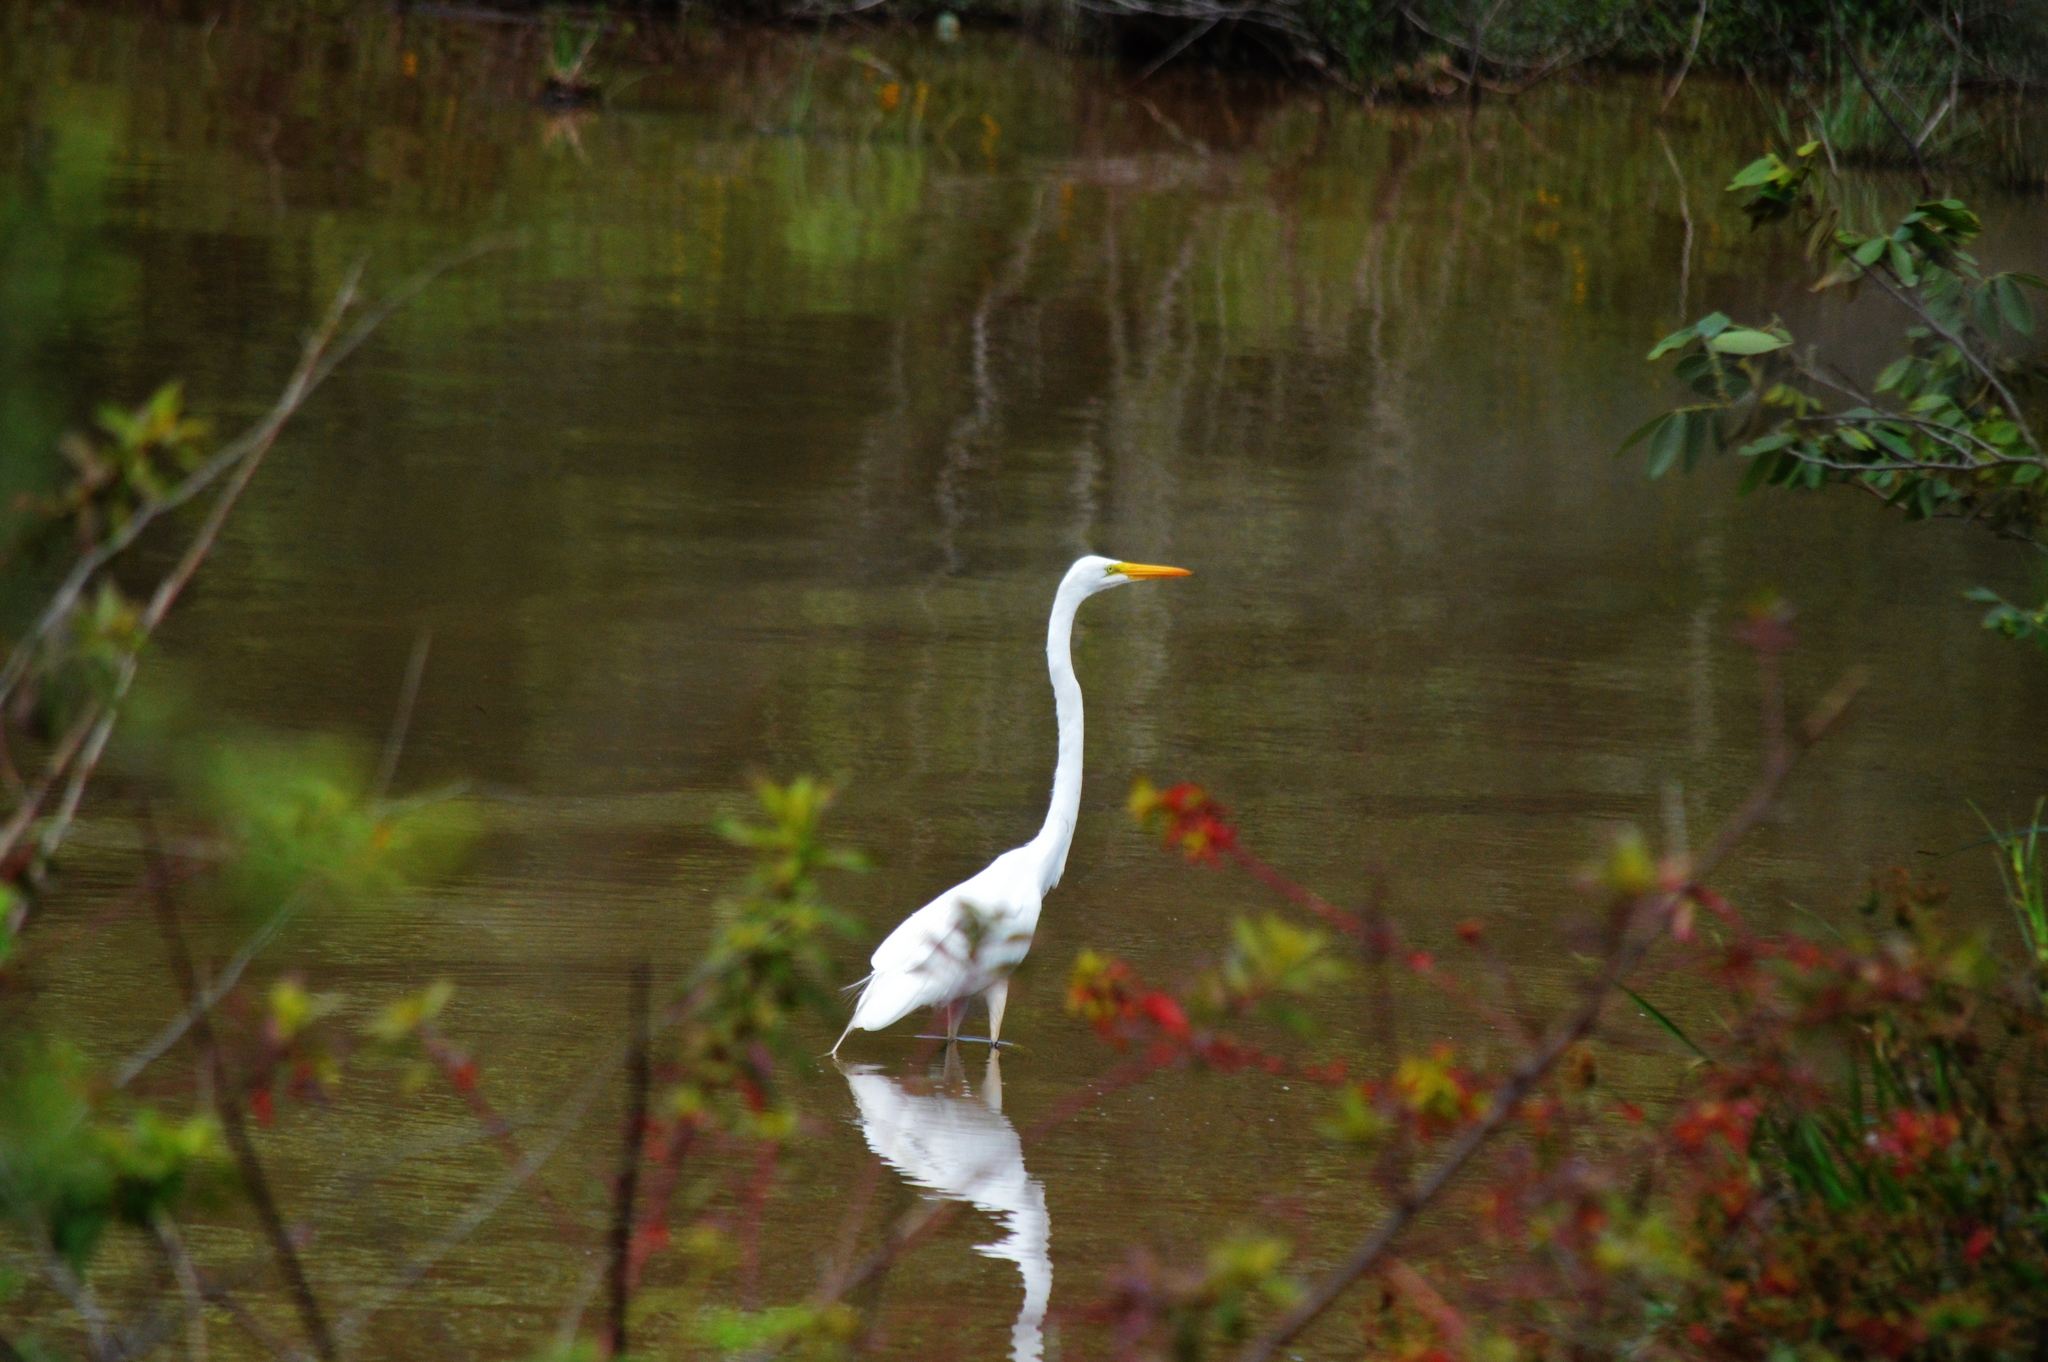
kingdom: Animalia
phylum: Chordata
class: Aves
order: Pelecaniformes
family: Ardeidae
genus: Ardea
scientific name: Ardea alba
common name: Great egret
